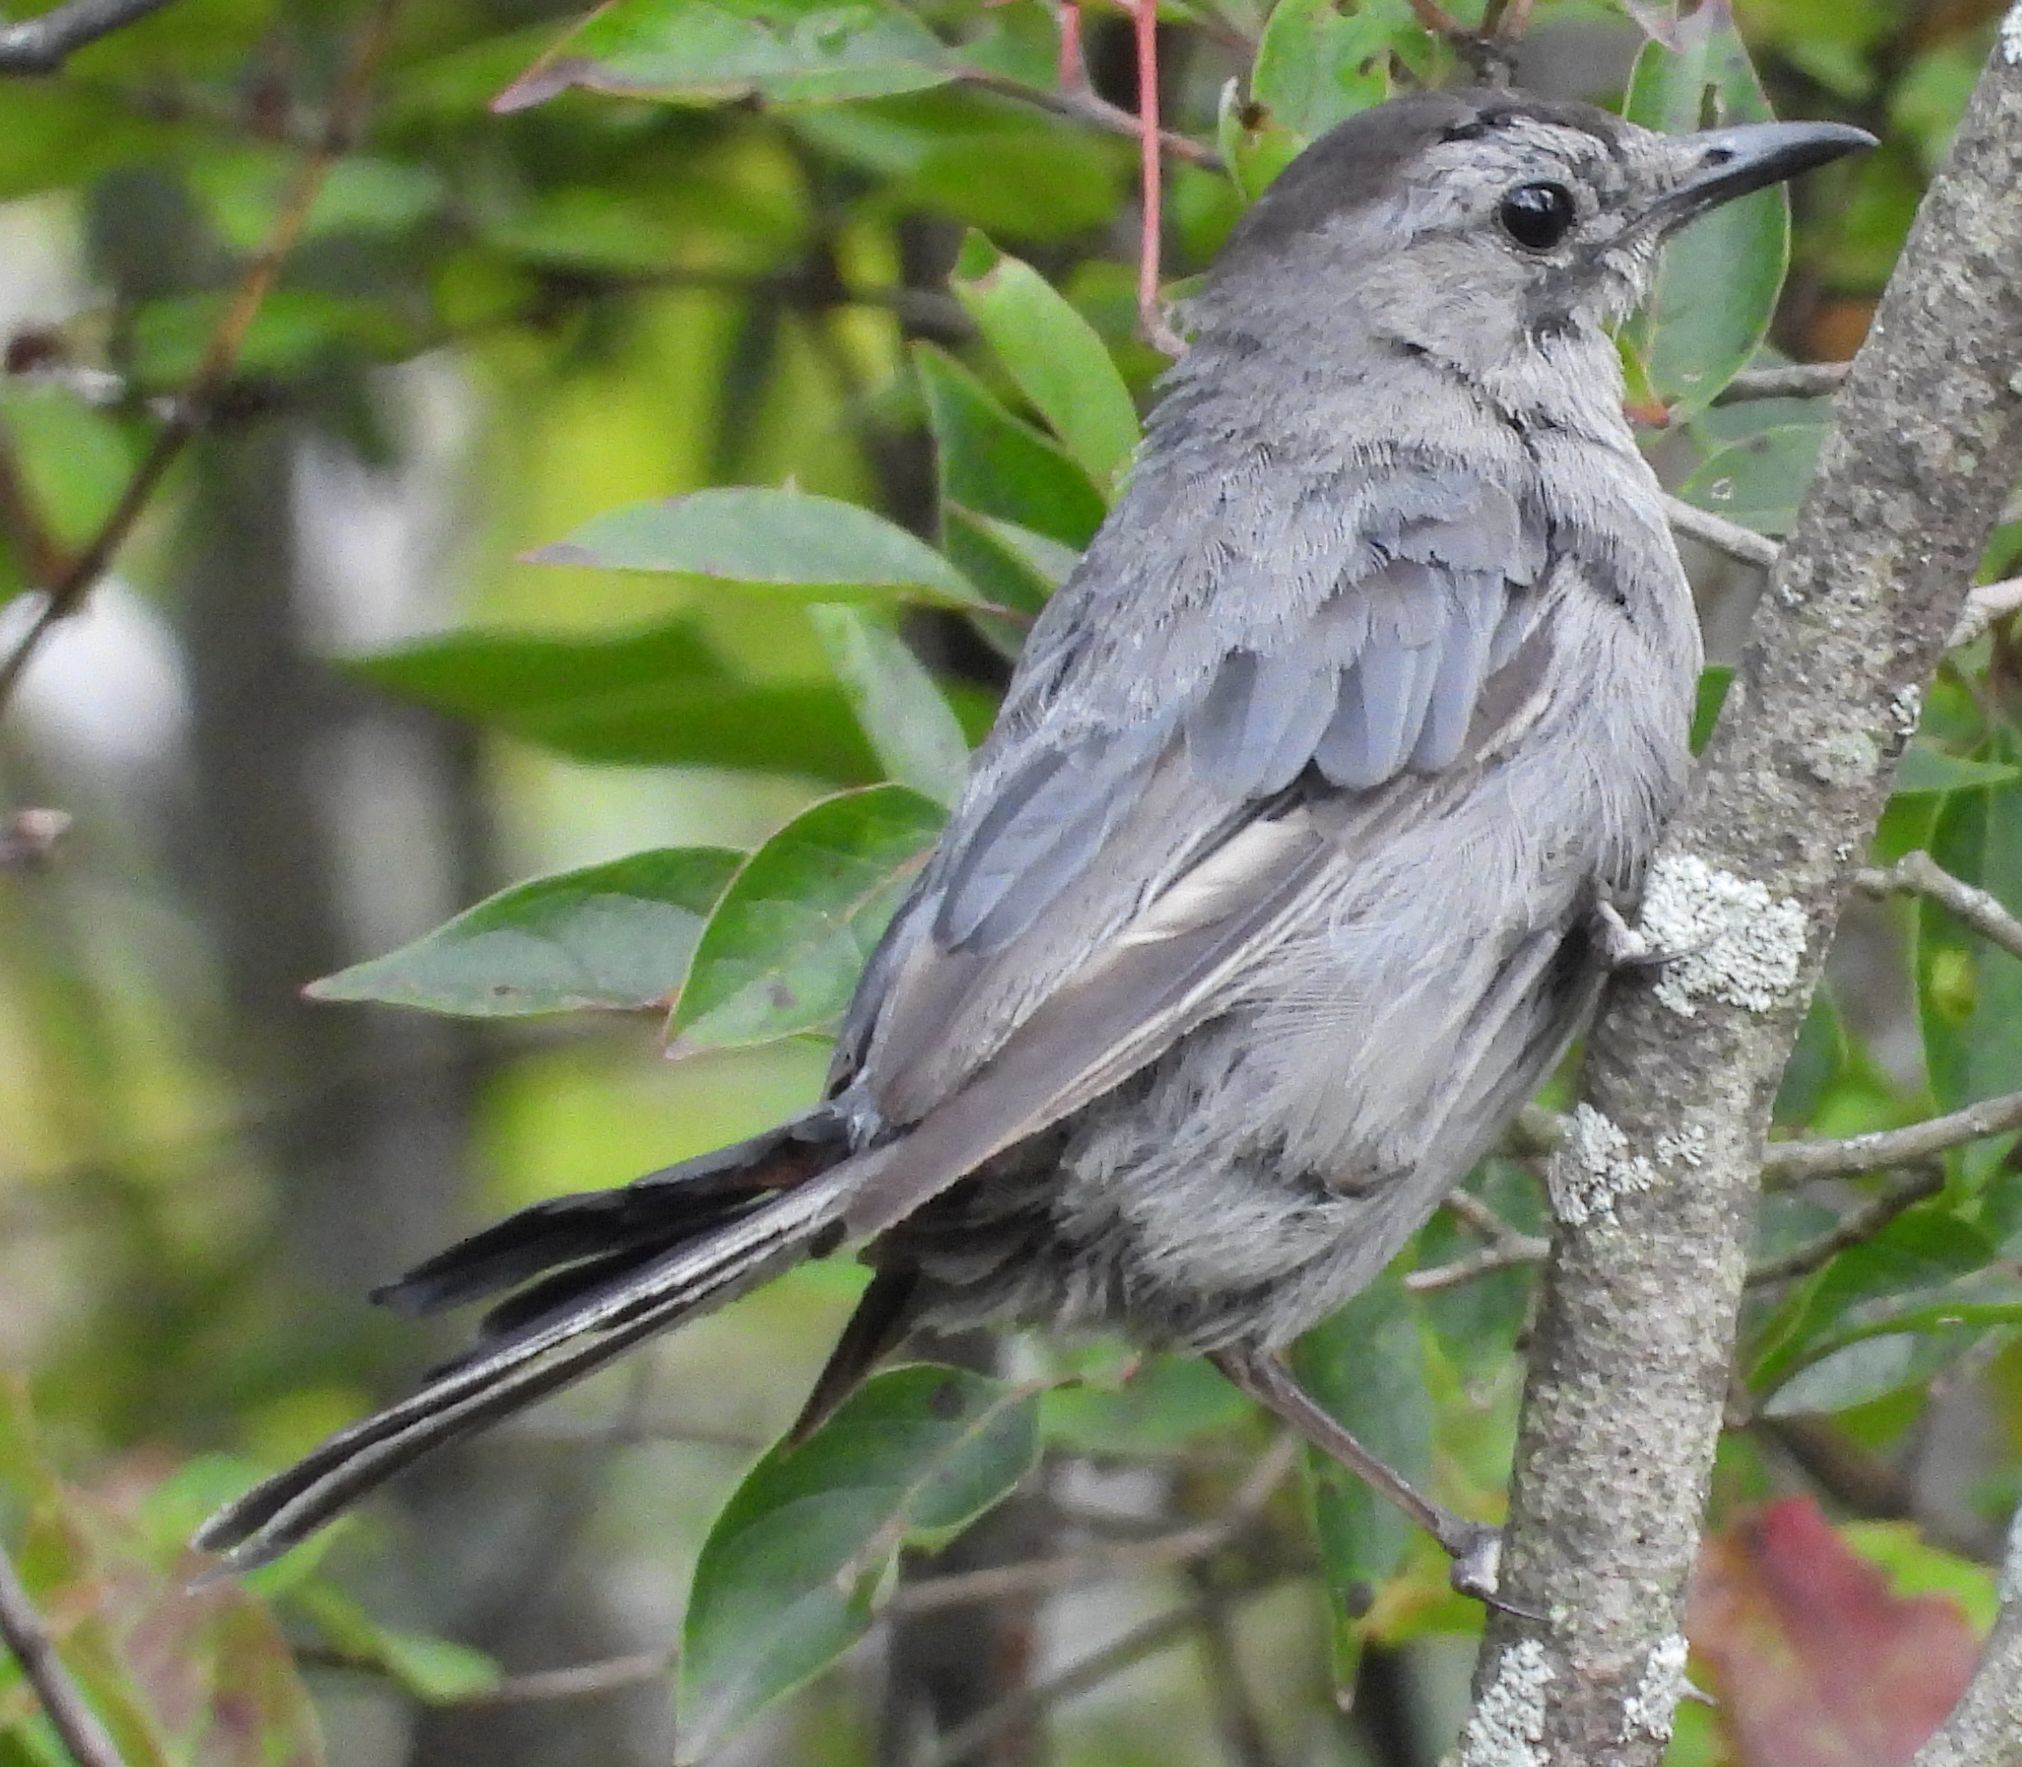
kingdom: Animalia
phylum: Chordata
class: Aves
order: Passeriformes
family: Mimidae
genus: Dumetella
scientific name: Dumetella carolinensis
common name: Gray catbird
